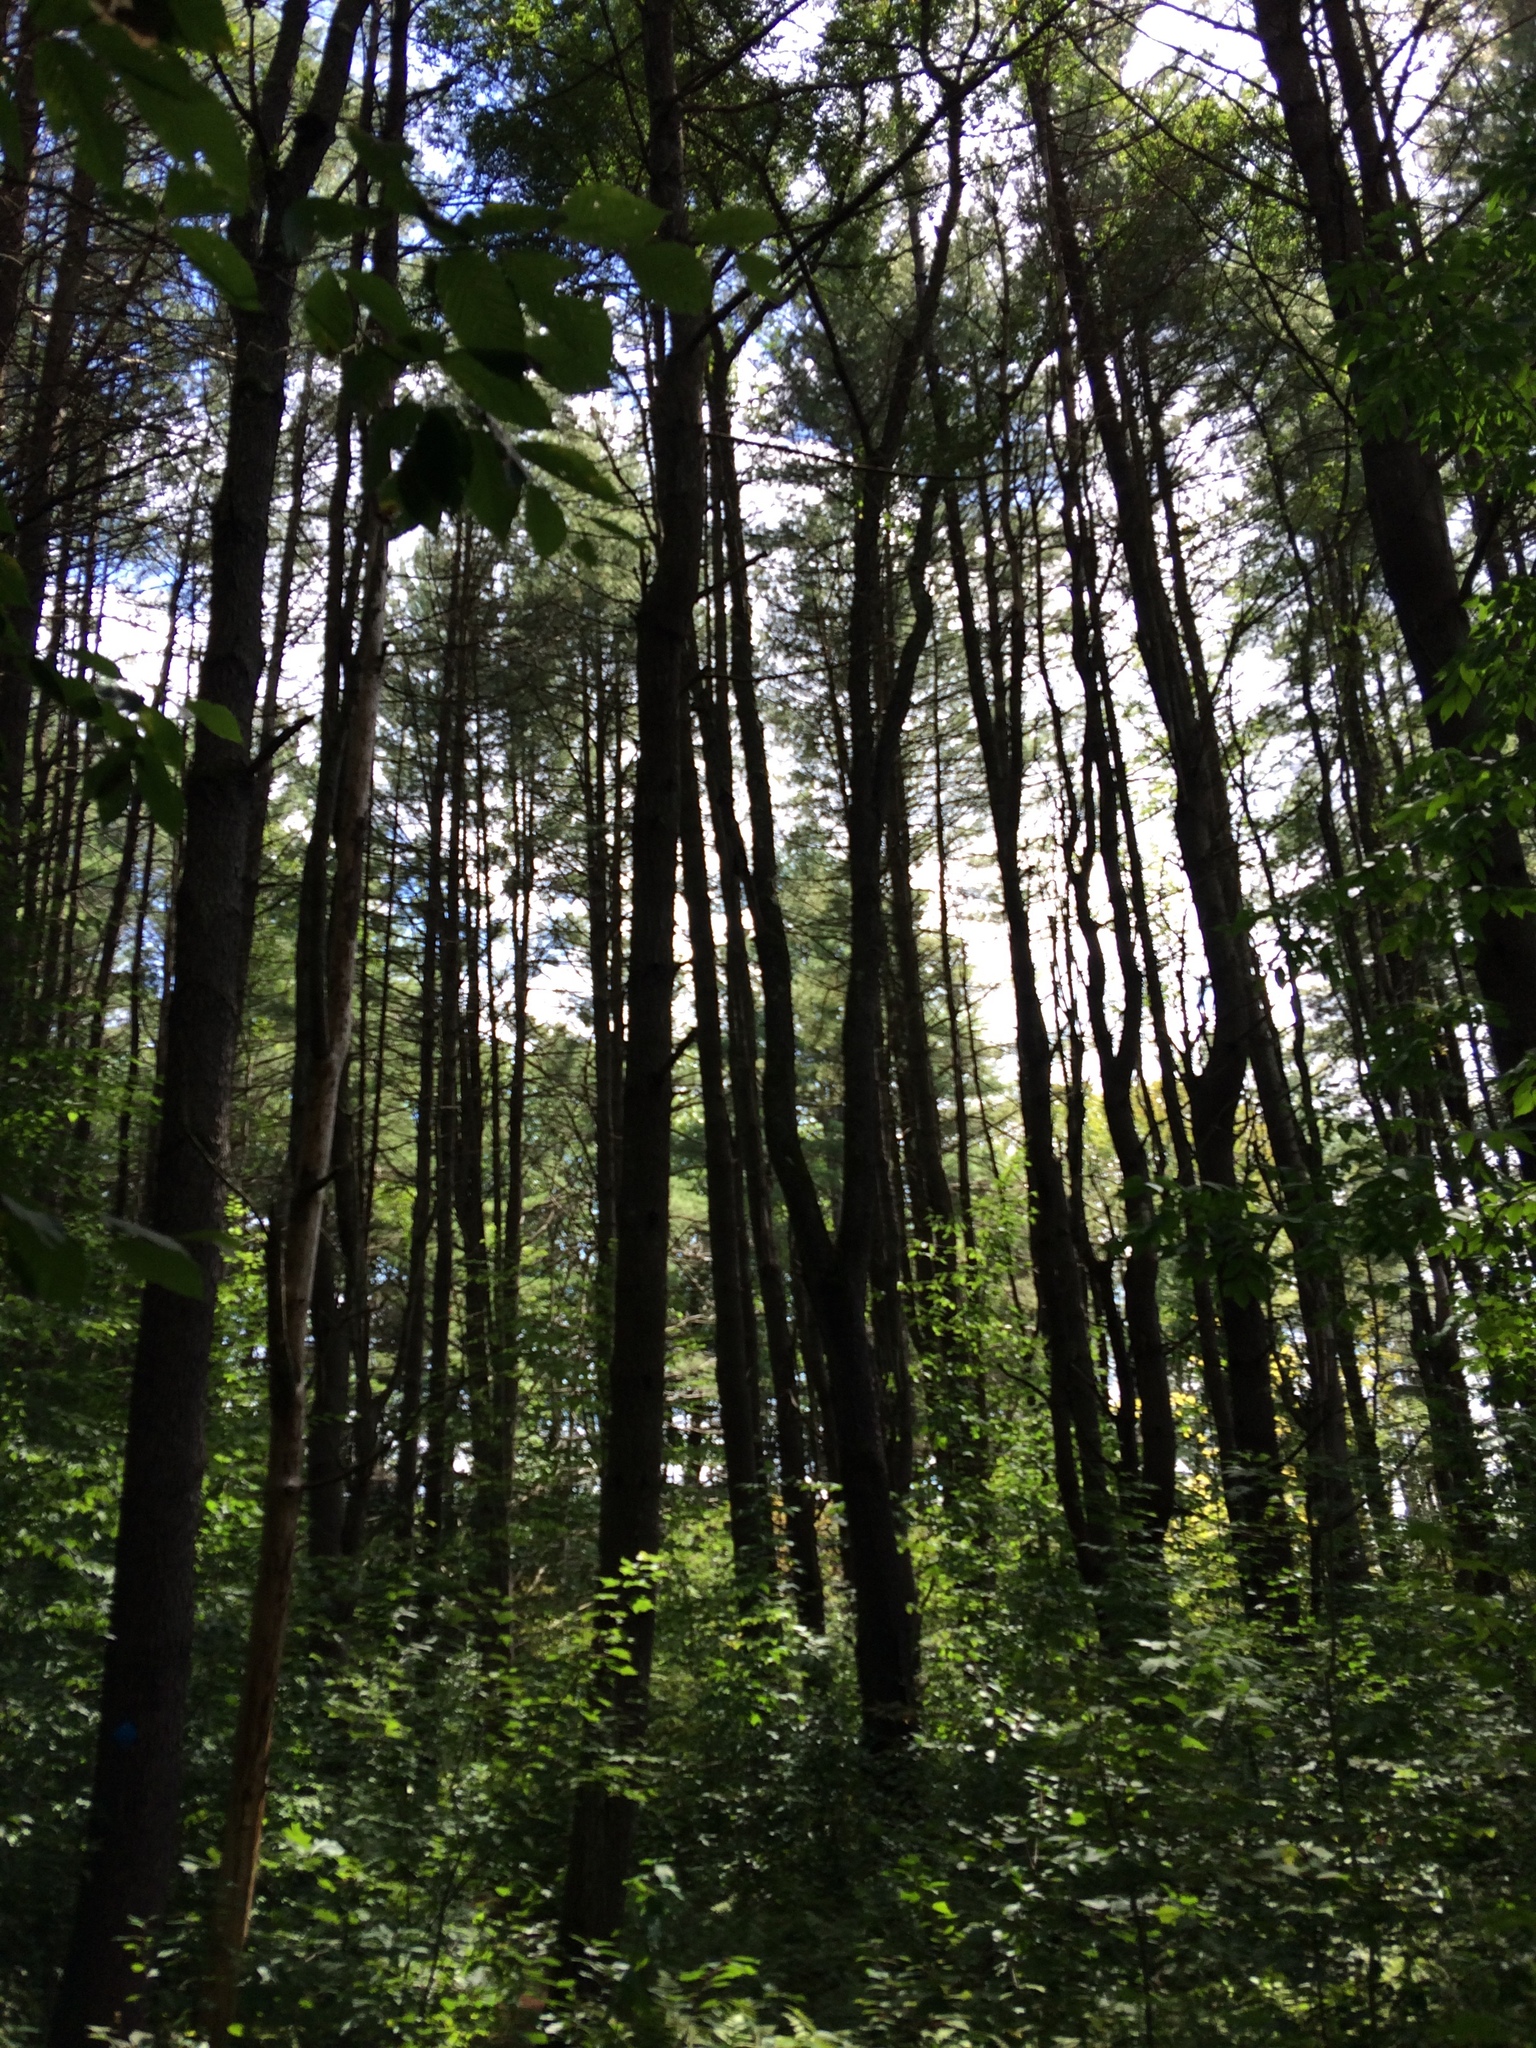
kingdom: Plantae
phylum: Tracheophyta
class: Pinopsida
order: Pinales
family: Pinaceae
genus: Pinus
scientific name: Pinus strobus
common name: Weymouth pine
